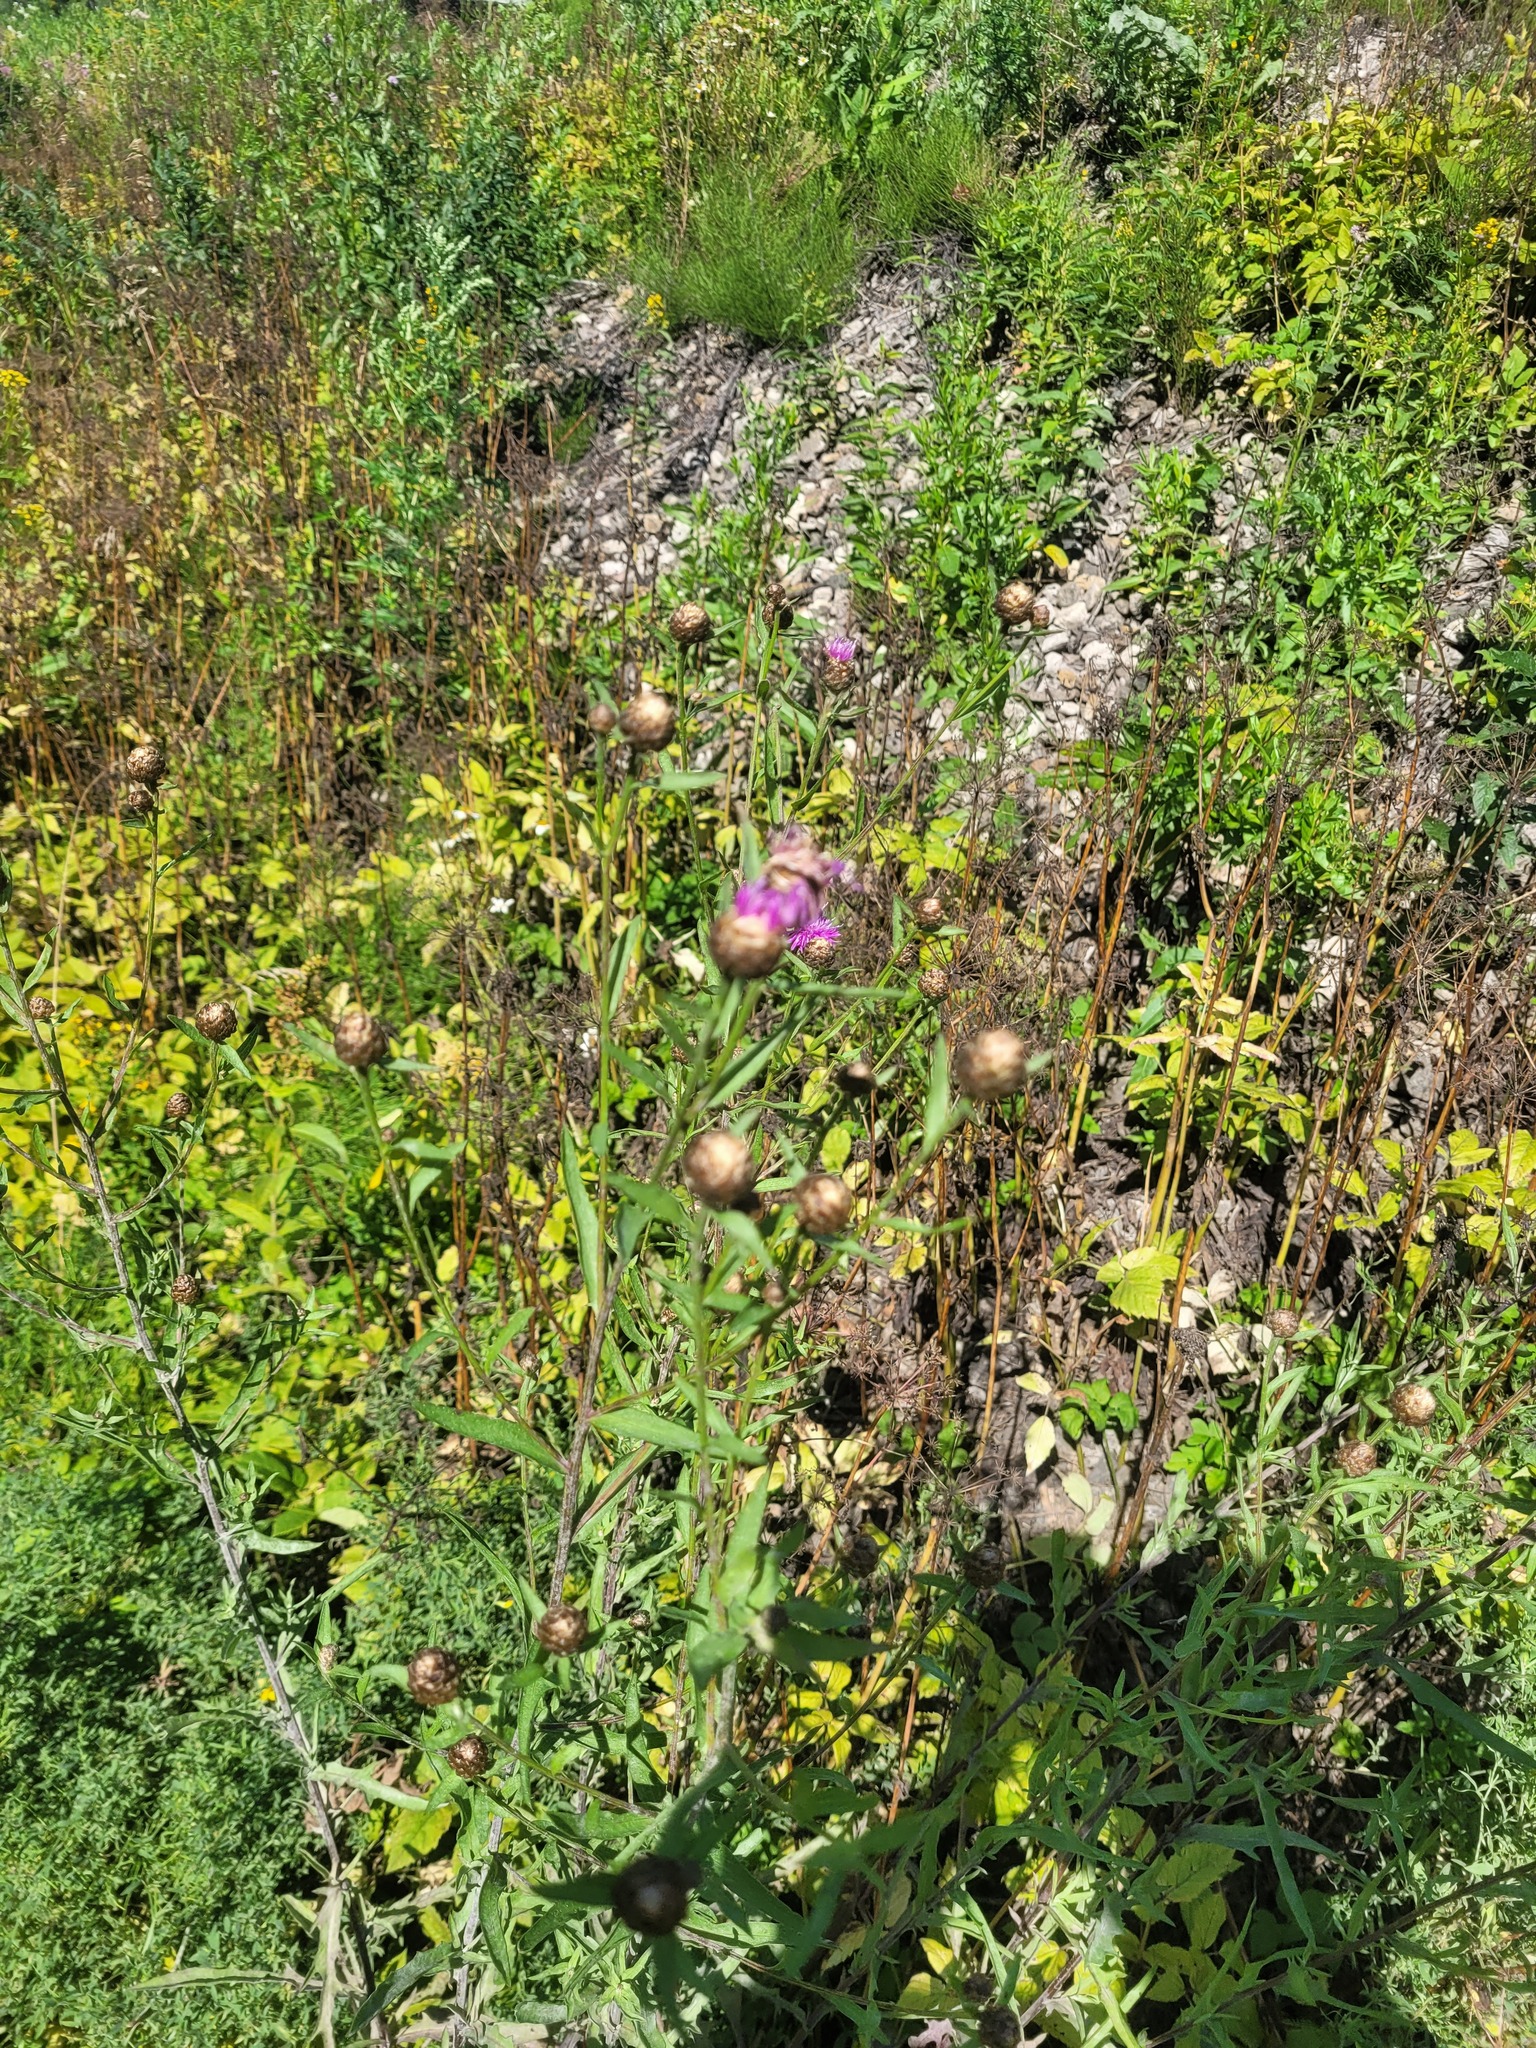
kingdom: Plantae
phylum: Tracheophyta
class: Magnoliopsida
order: Asterales
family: Asteraceae
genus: Centaurea
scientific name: Centaurea jacea
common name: Brown knapweed
